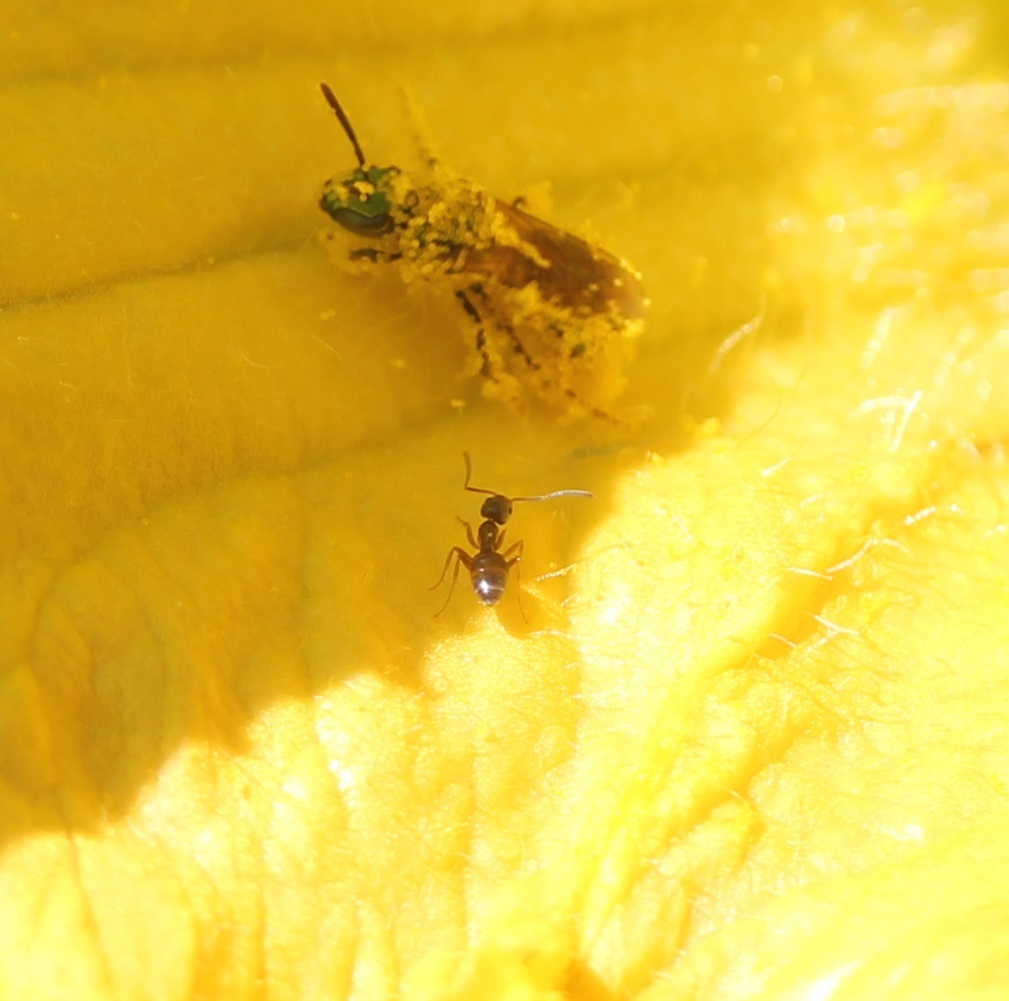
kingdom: Animalia
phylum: Arthropoda
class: Insecta
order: Hymenoptera
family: Formicidae
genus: Tapinoma
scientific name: Tapinoma sessile
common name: Odorous house ant
